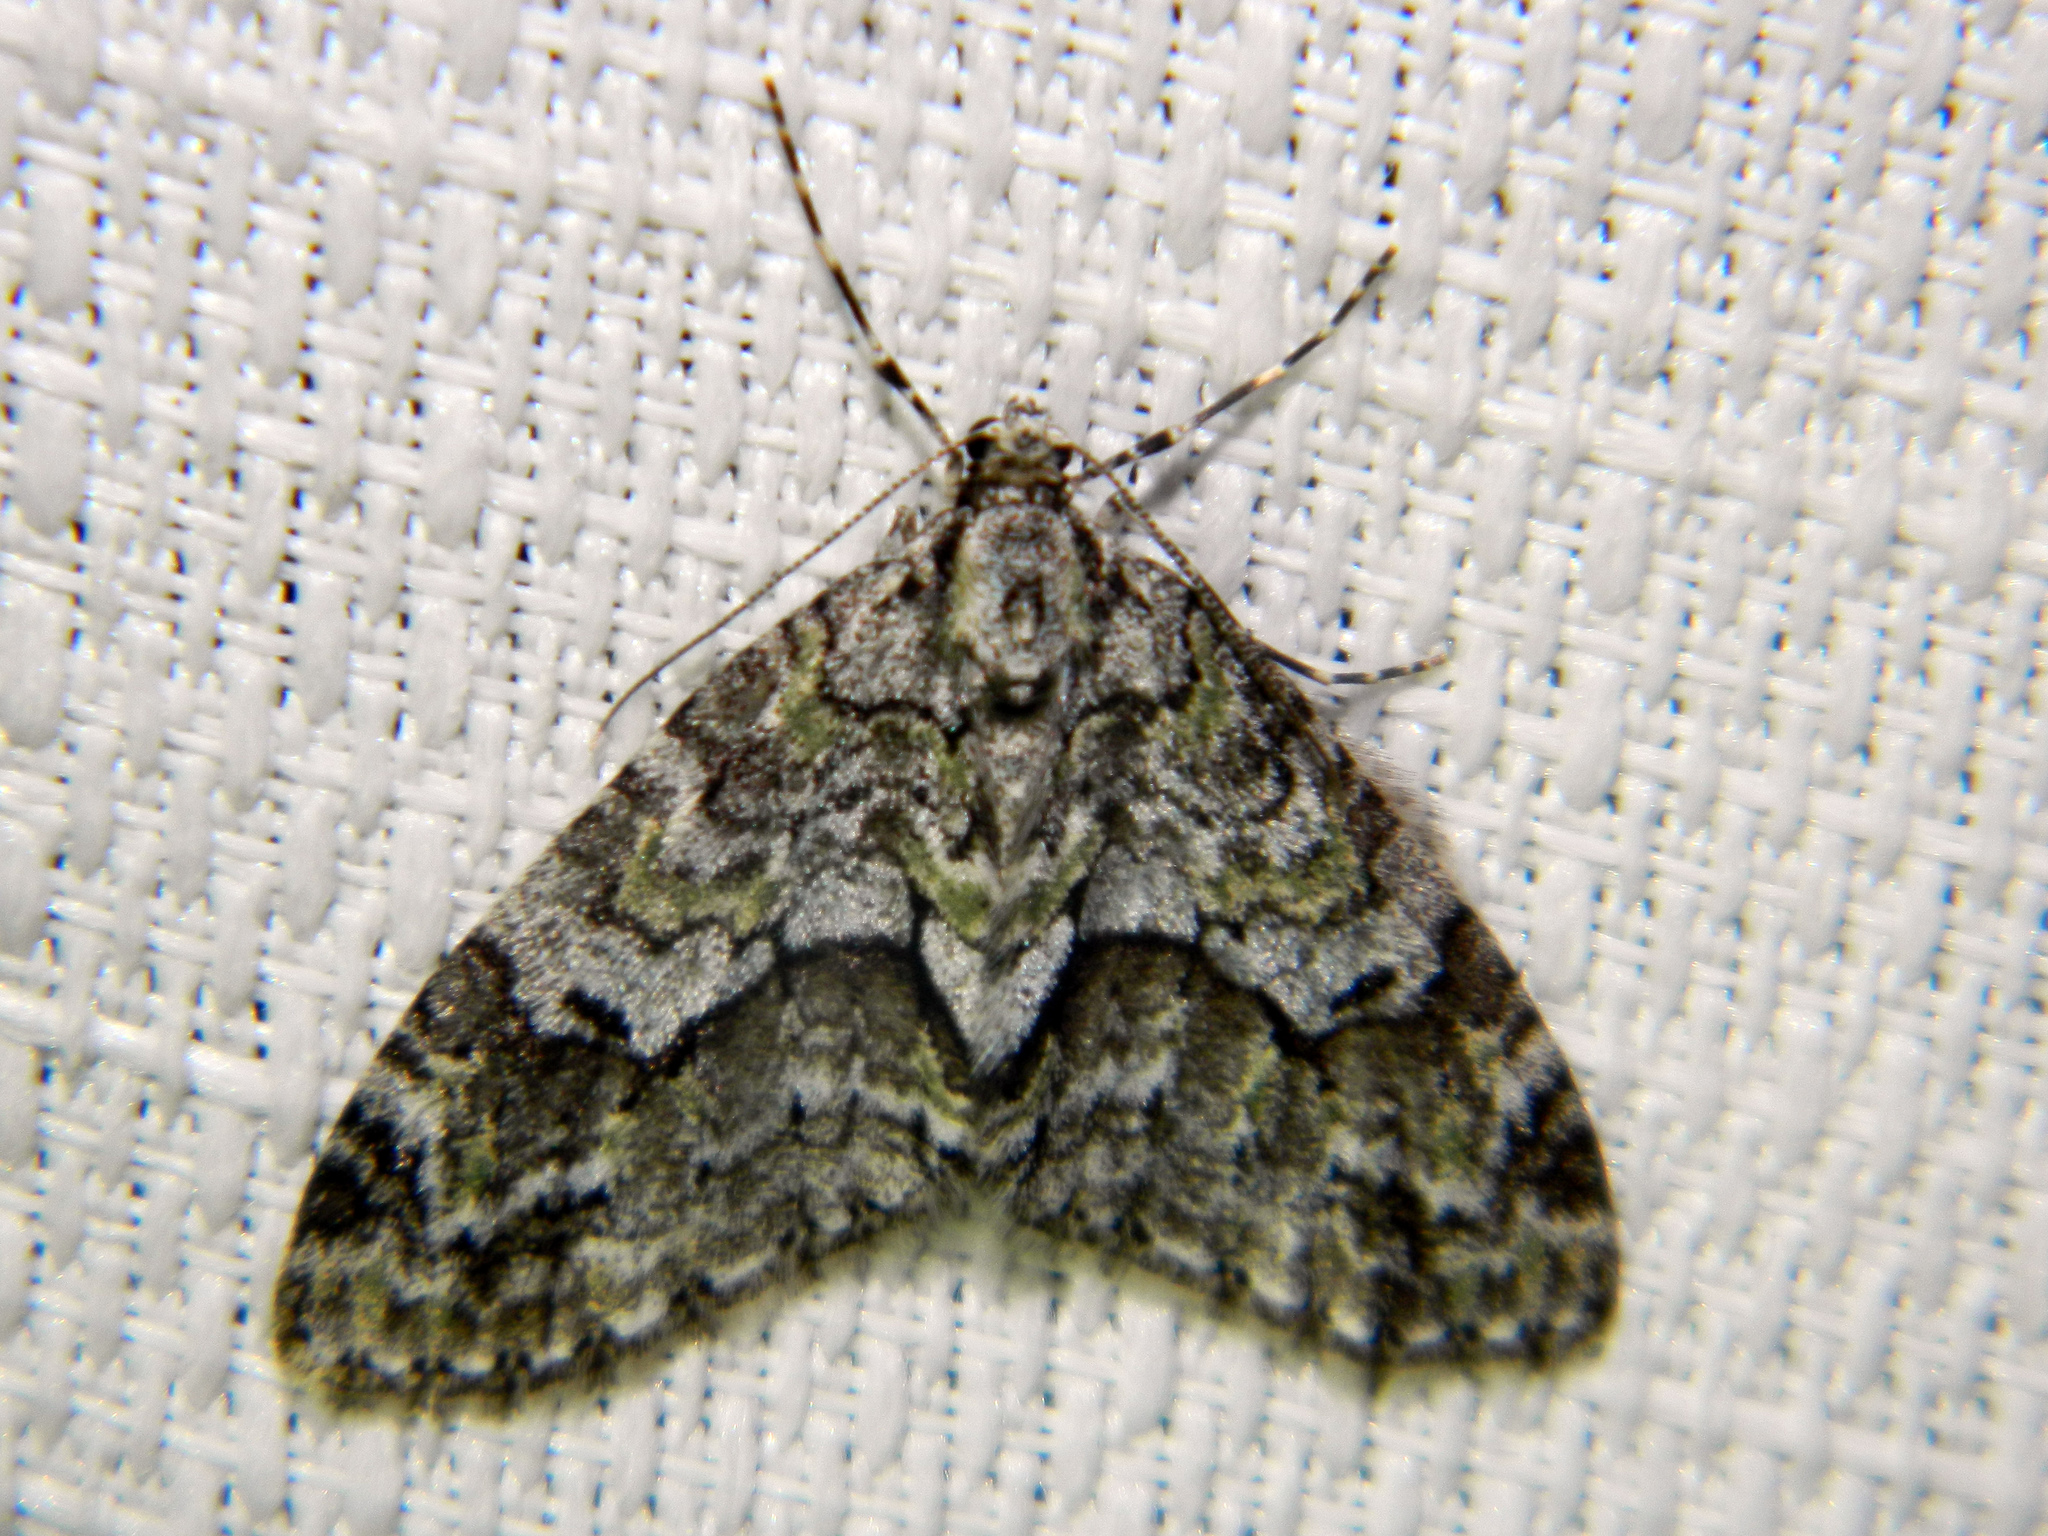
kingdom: Animalia
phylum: Arthropoda
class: Insecta
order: Lepidoptera
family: Geometridae
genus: Cladara
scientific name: Cladara limitaria
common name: Mottled gray carpet
